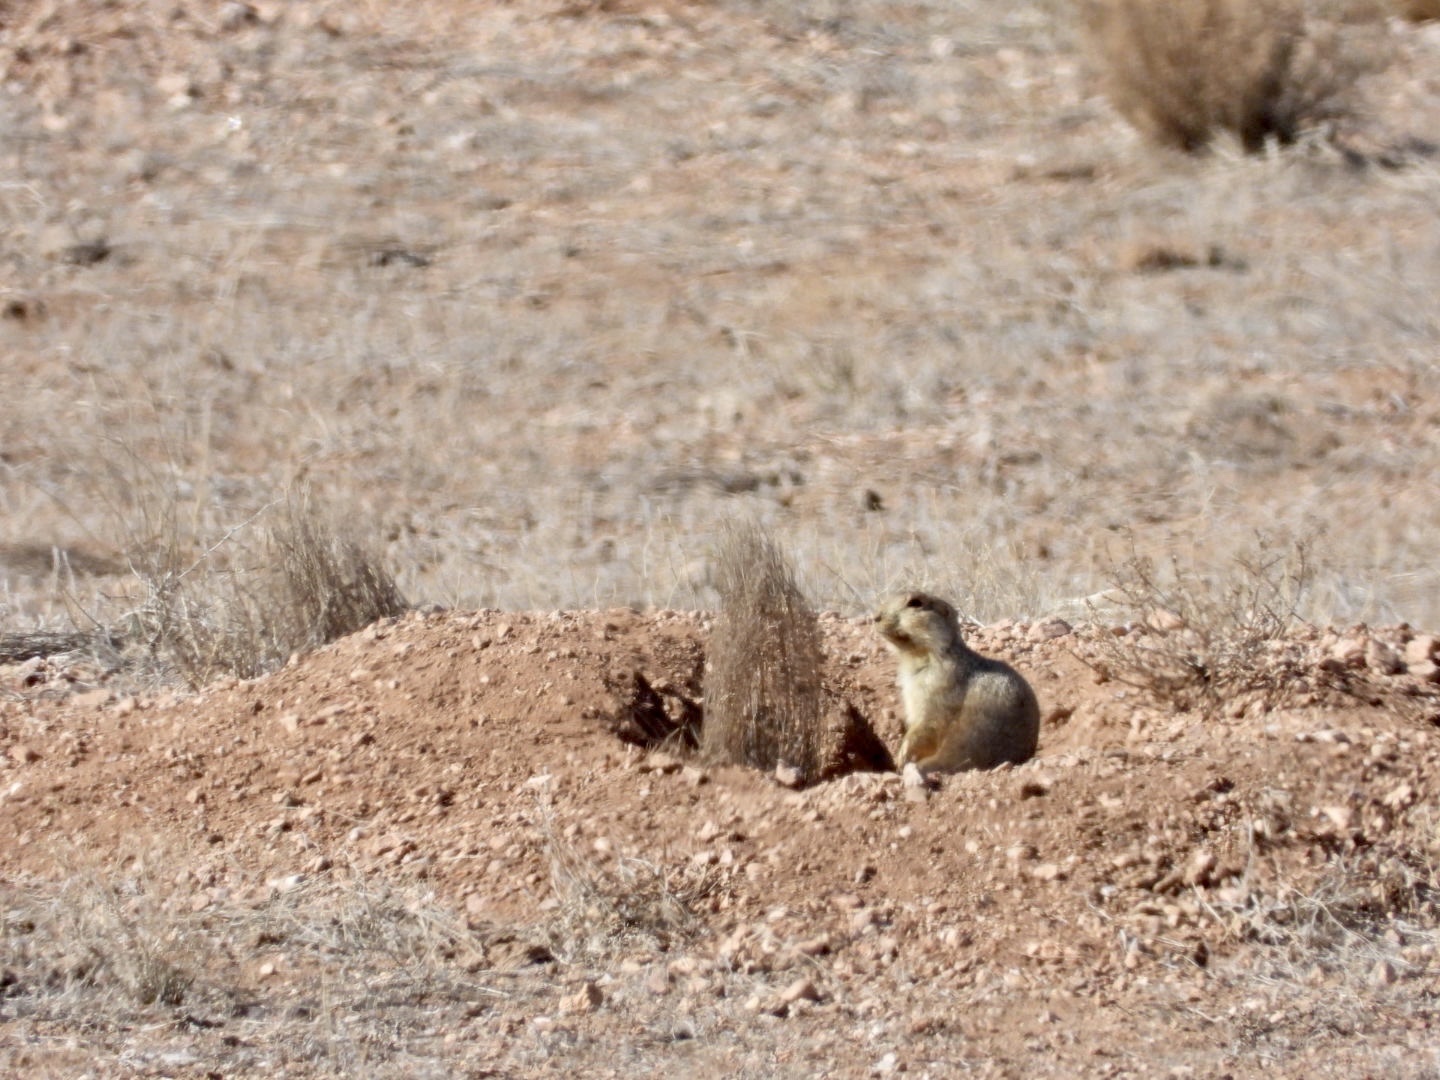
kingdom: Animalia
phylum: Chordata
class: Mammalia
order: Rodentia
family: Sciuridae
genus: Cynomys
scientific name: Cynomys gunnisoni
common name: Gunnison's prairie dog
